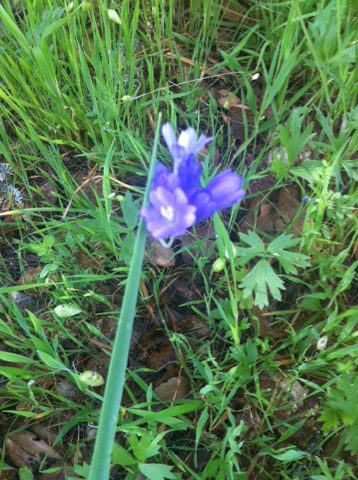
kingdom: Plantae
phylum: Tracheophyta
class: Liliopsida
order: Asparagales
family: Asparagaceae
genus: Dipterostemon
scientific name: Dipterostemon capitatus
